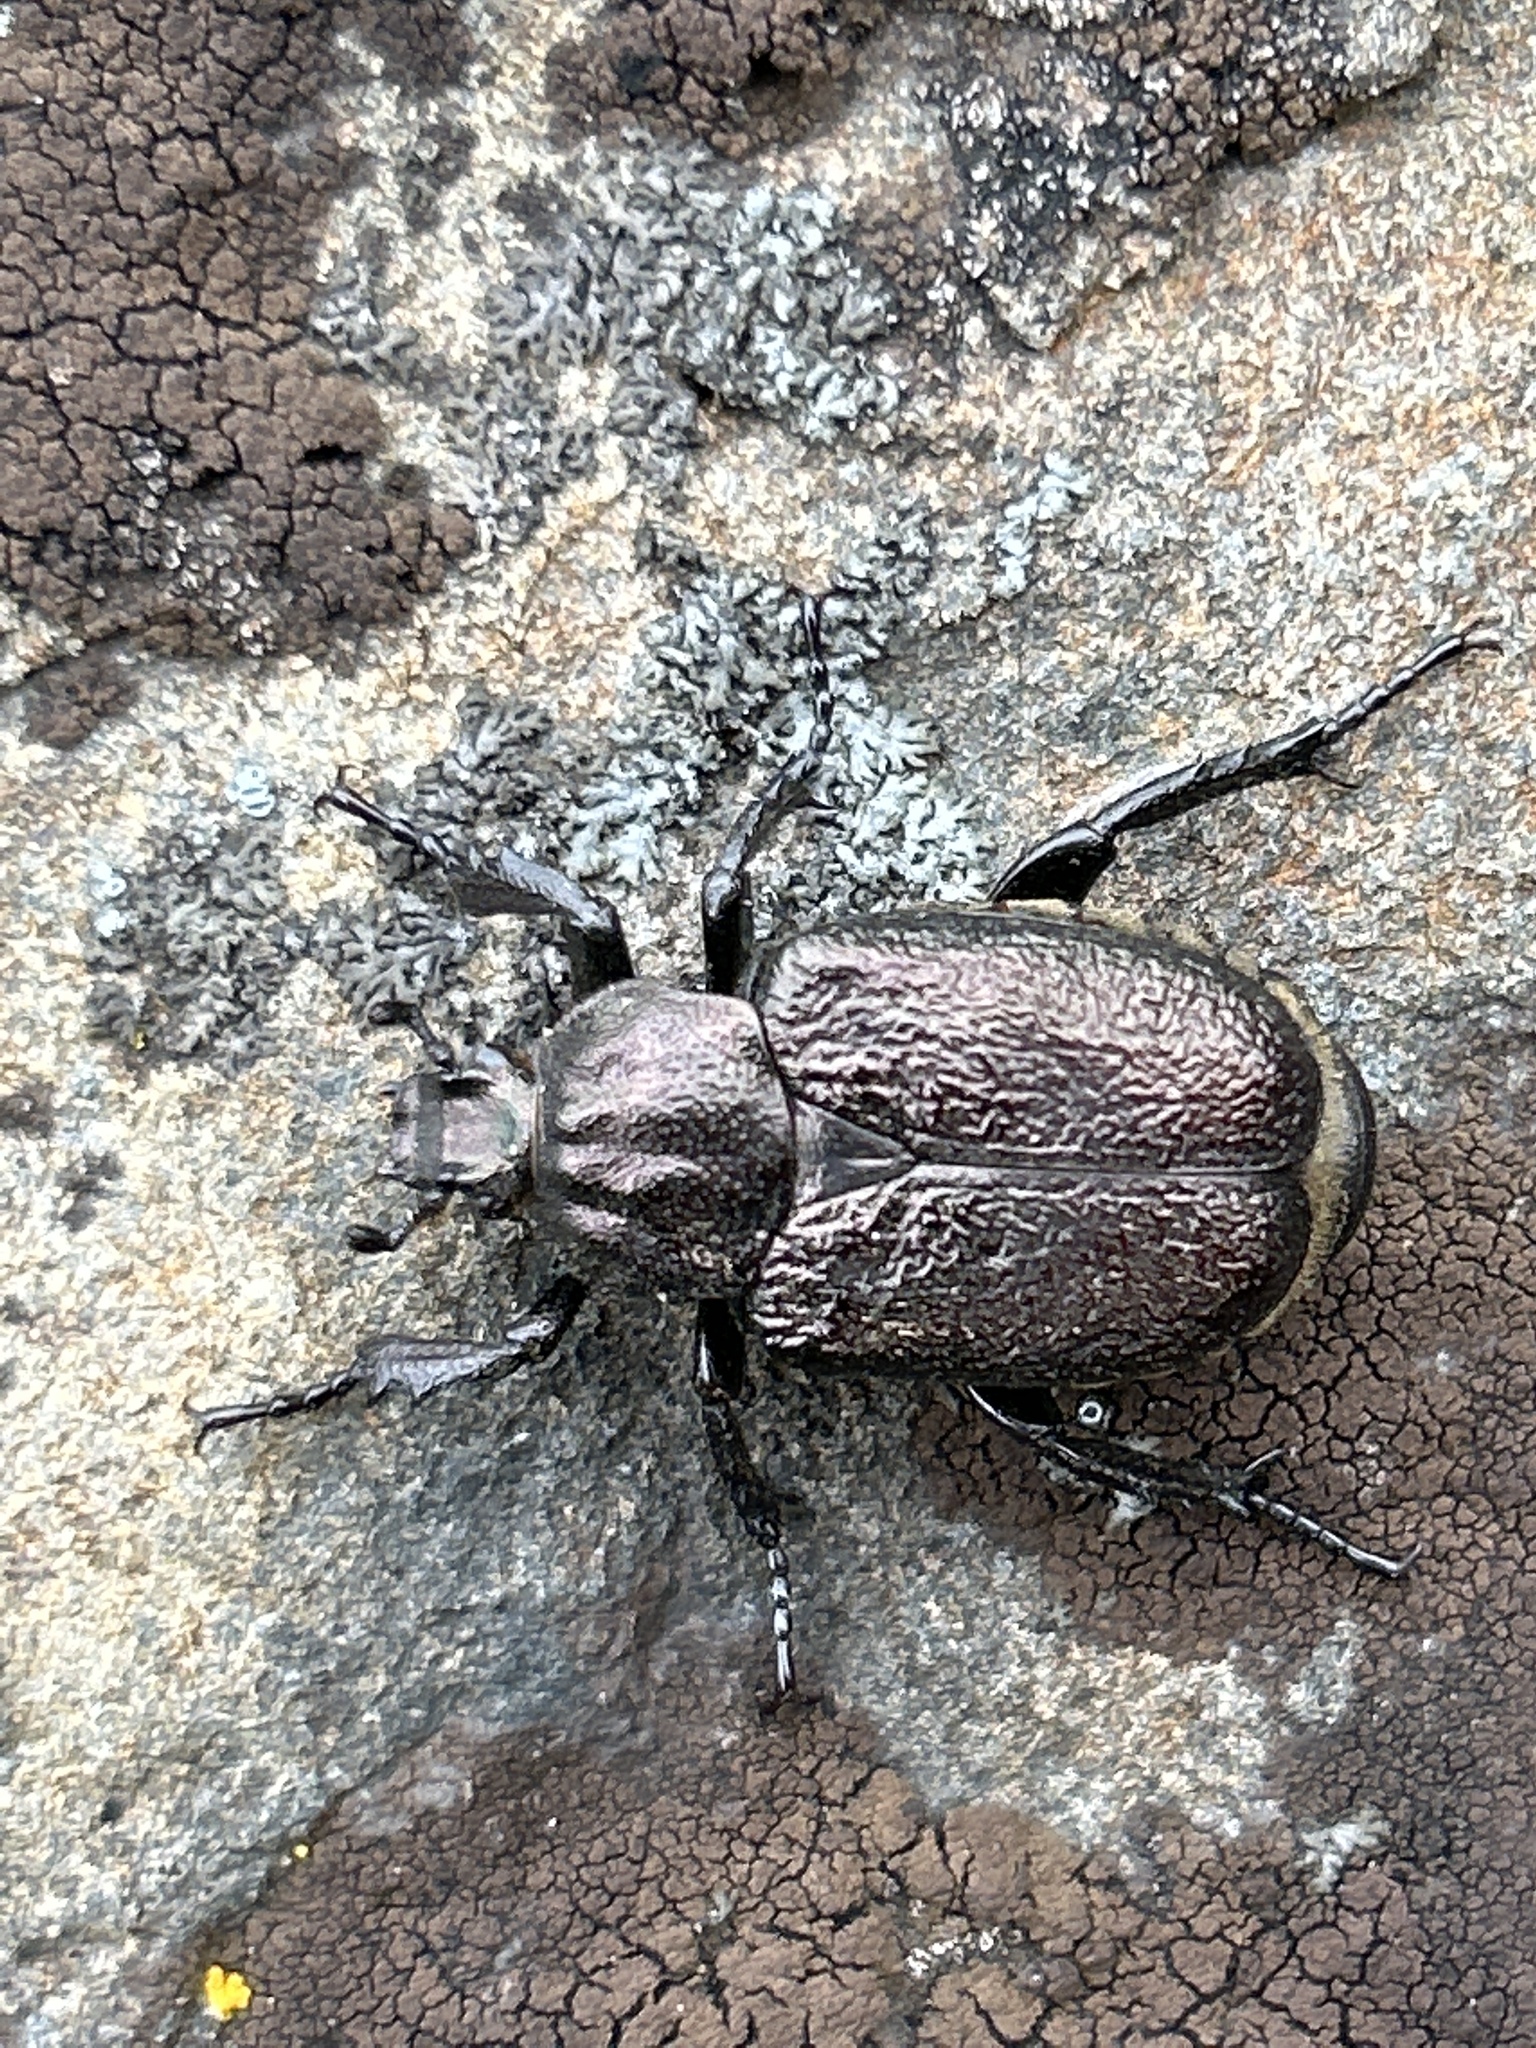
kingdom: Animalia
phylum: Arthropoda
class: Insecta
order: Coleoptera
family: Scarabaeidae
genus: Osmoderma
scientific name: Osmoderma scabra
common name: Rough hermit beetle
